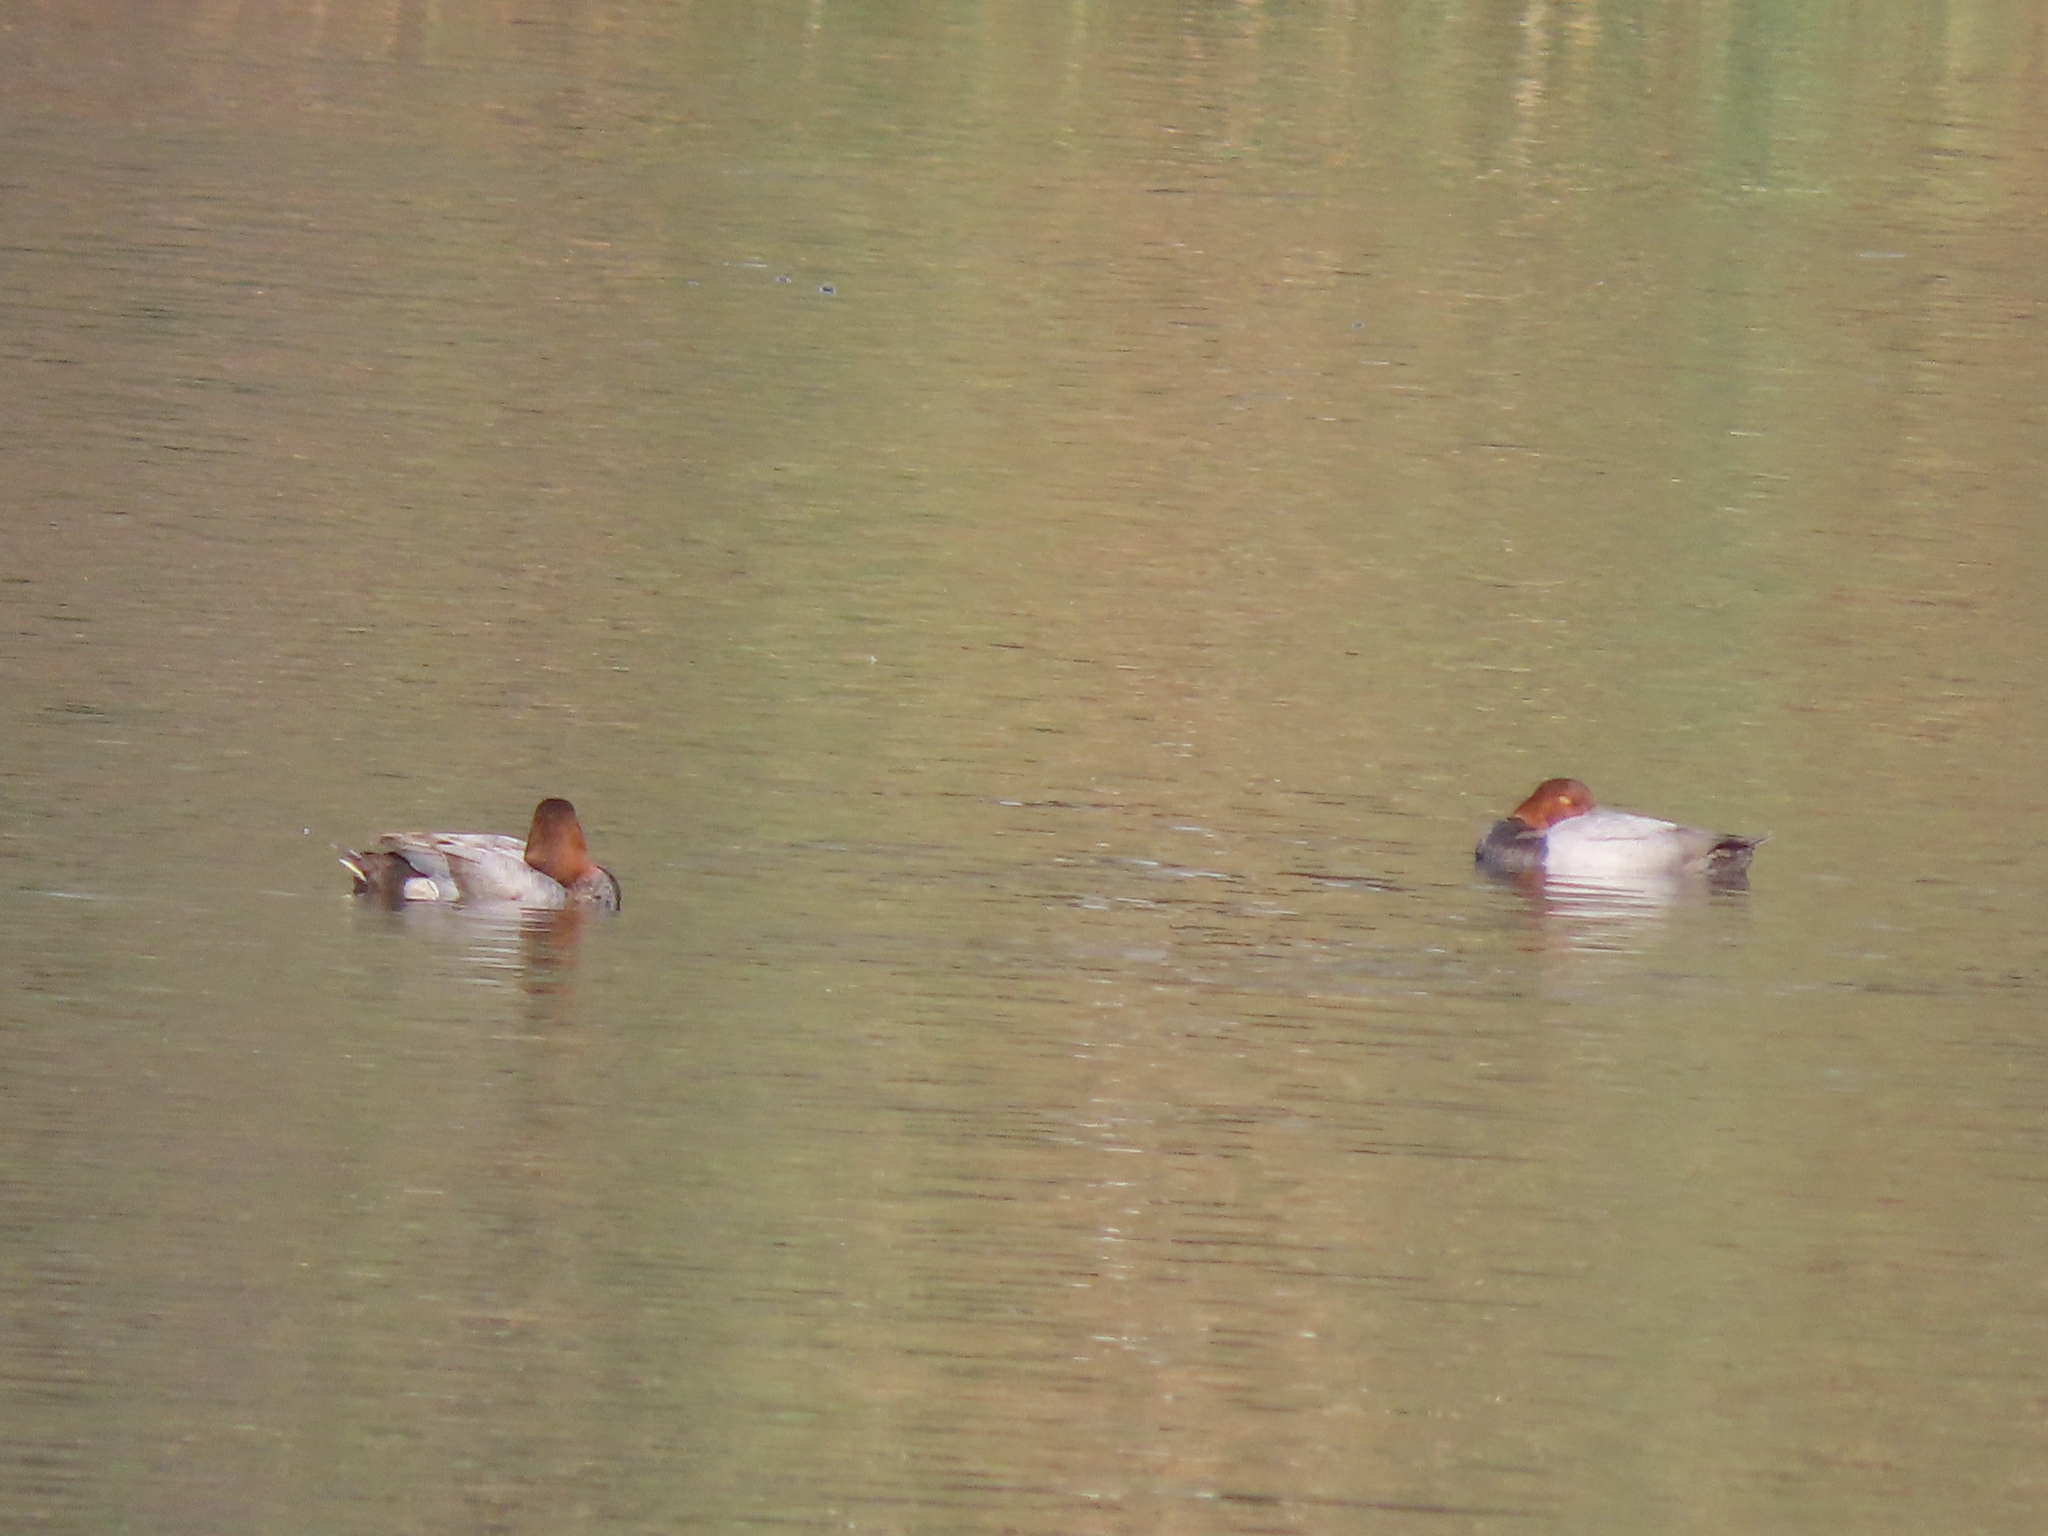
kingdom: Animalia
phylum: Chordata
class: Aves
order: Anseriformes
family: Anatidae
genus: Aythya
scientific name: Aythya ferina
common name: Common pochard
